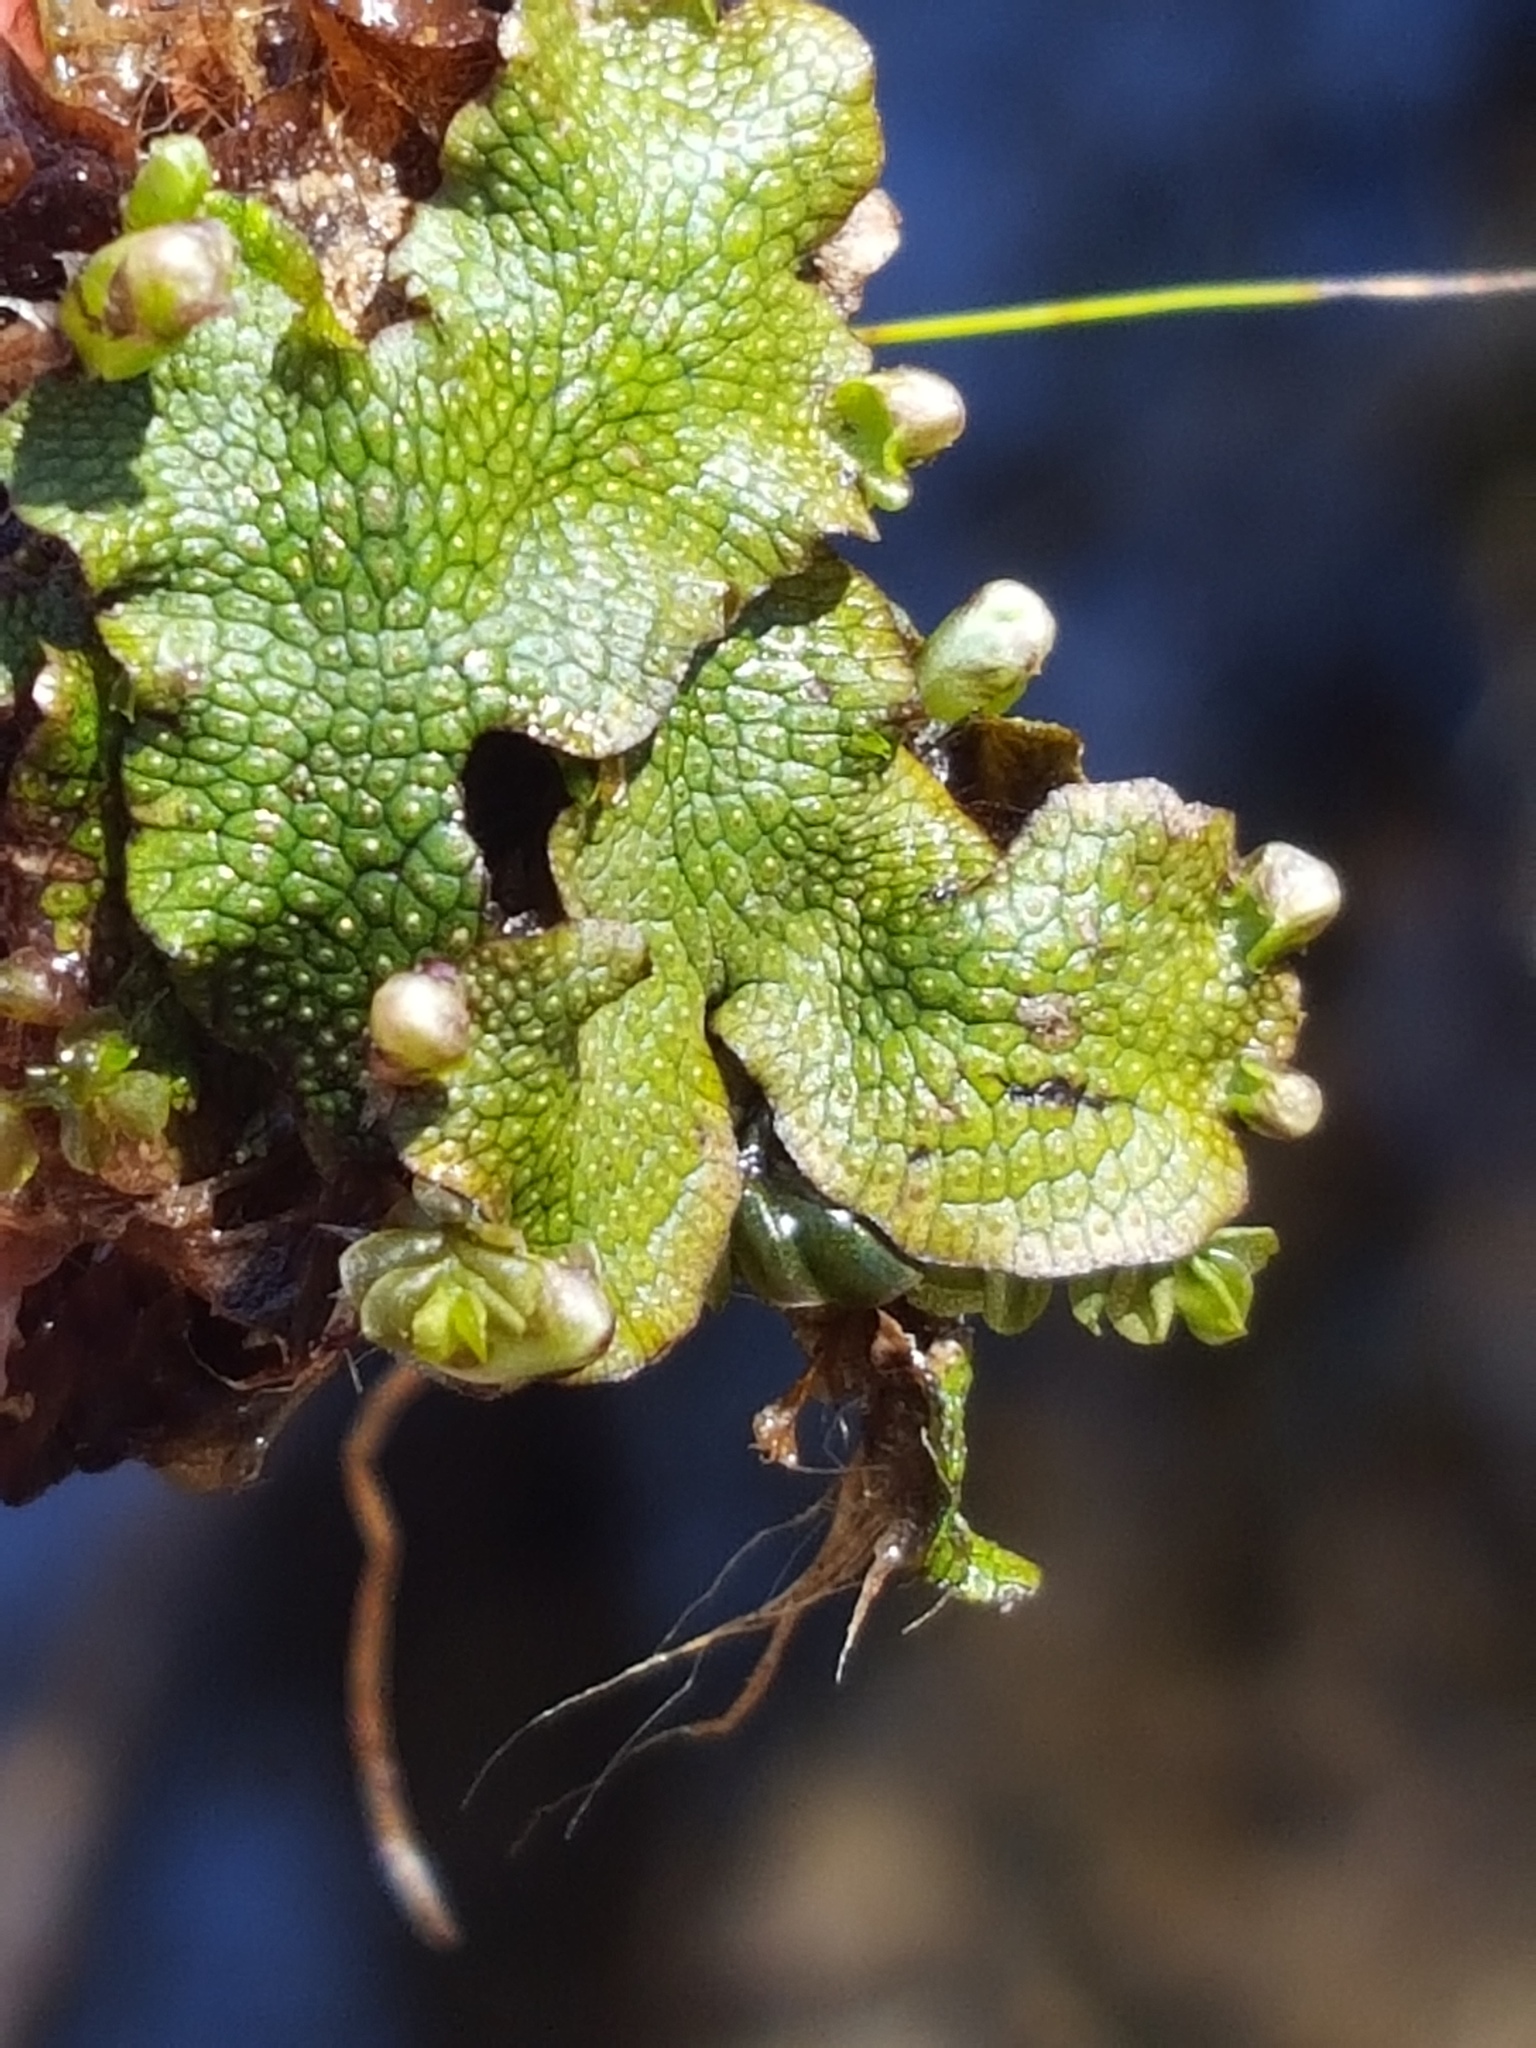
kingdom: Plantae
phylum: Marchantiophyta
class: Marchantiopsida
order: Marchantiales
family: Conocephalaceae
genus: Conocephalum
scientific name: Conocephalum salebrosum
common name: Cat-tongue liverwort
